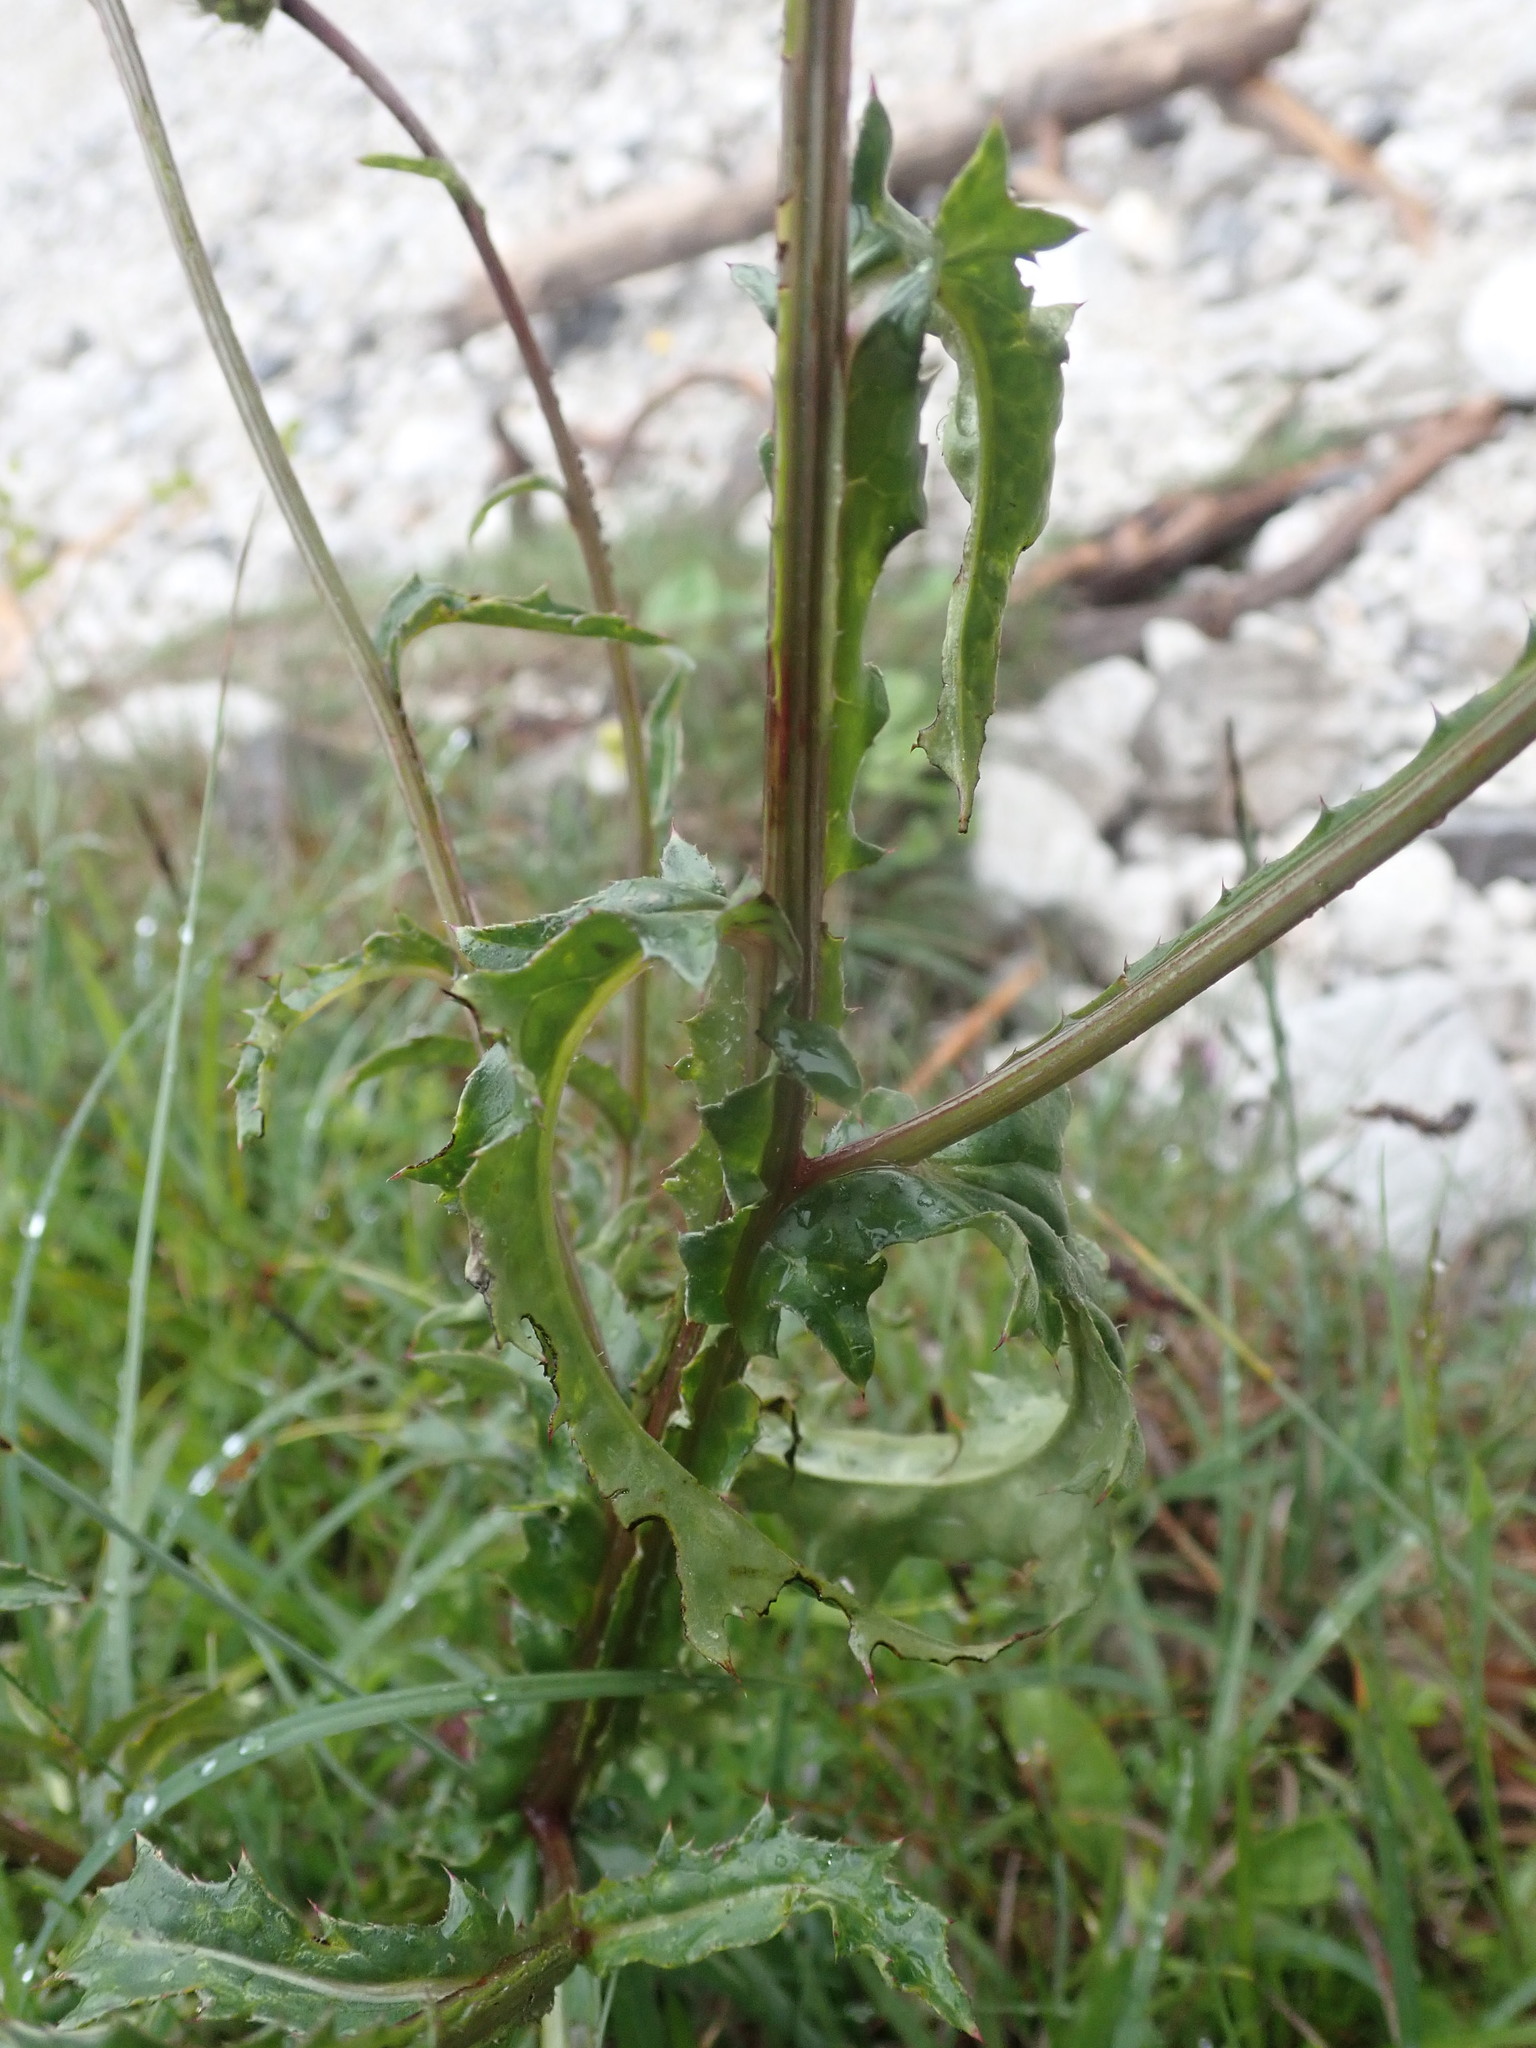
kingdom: Plantae
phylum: Tracheophyta
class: Magnoliopsida
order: Asterales
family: Asteraceae
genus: Carduus
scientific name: Carduus defloratus
